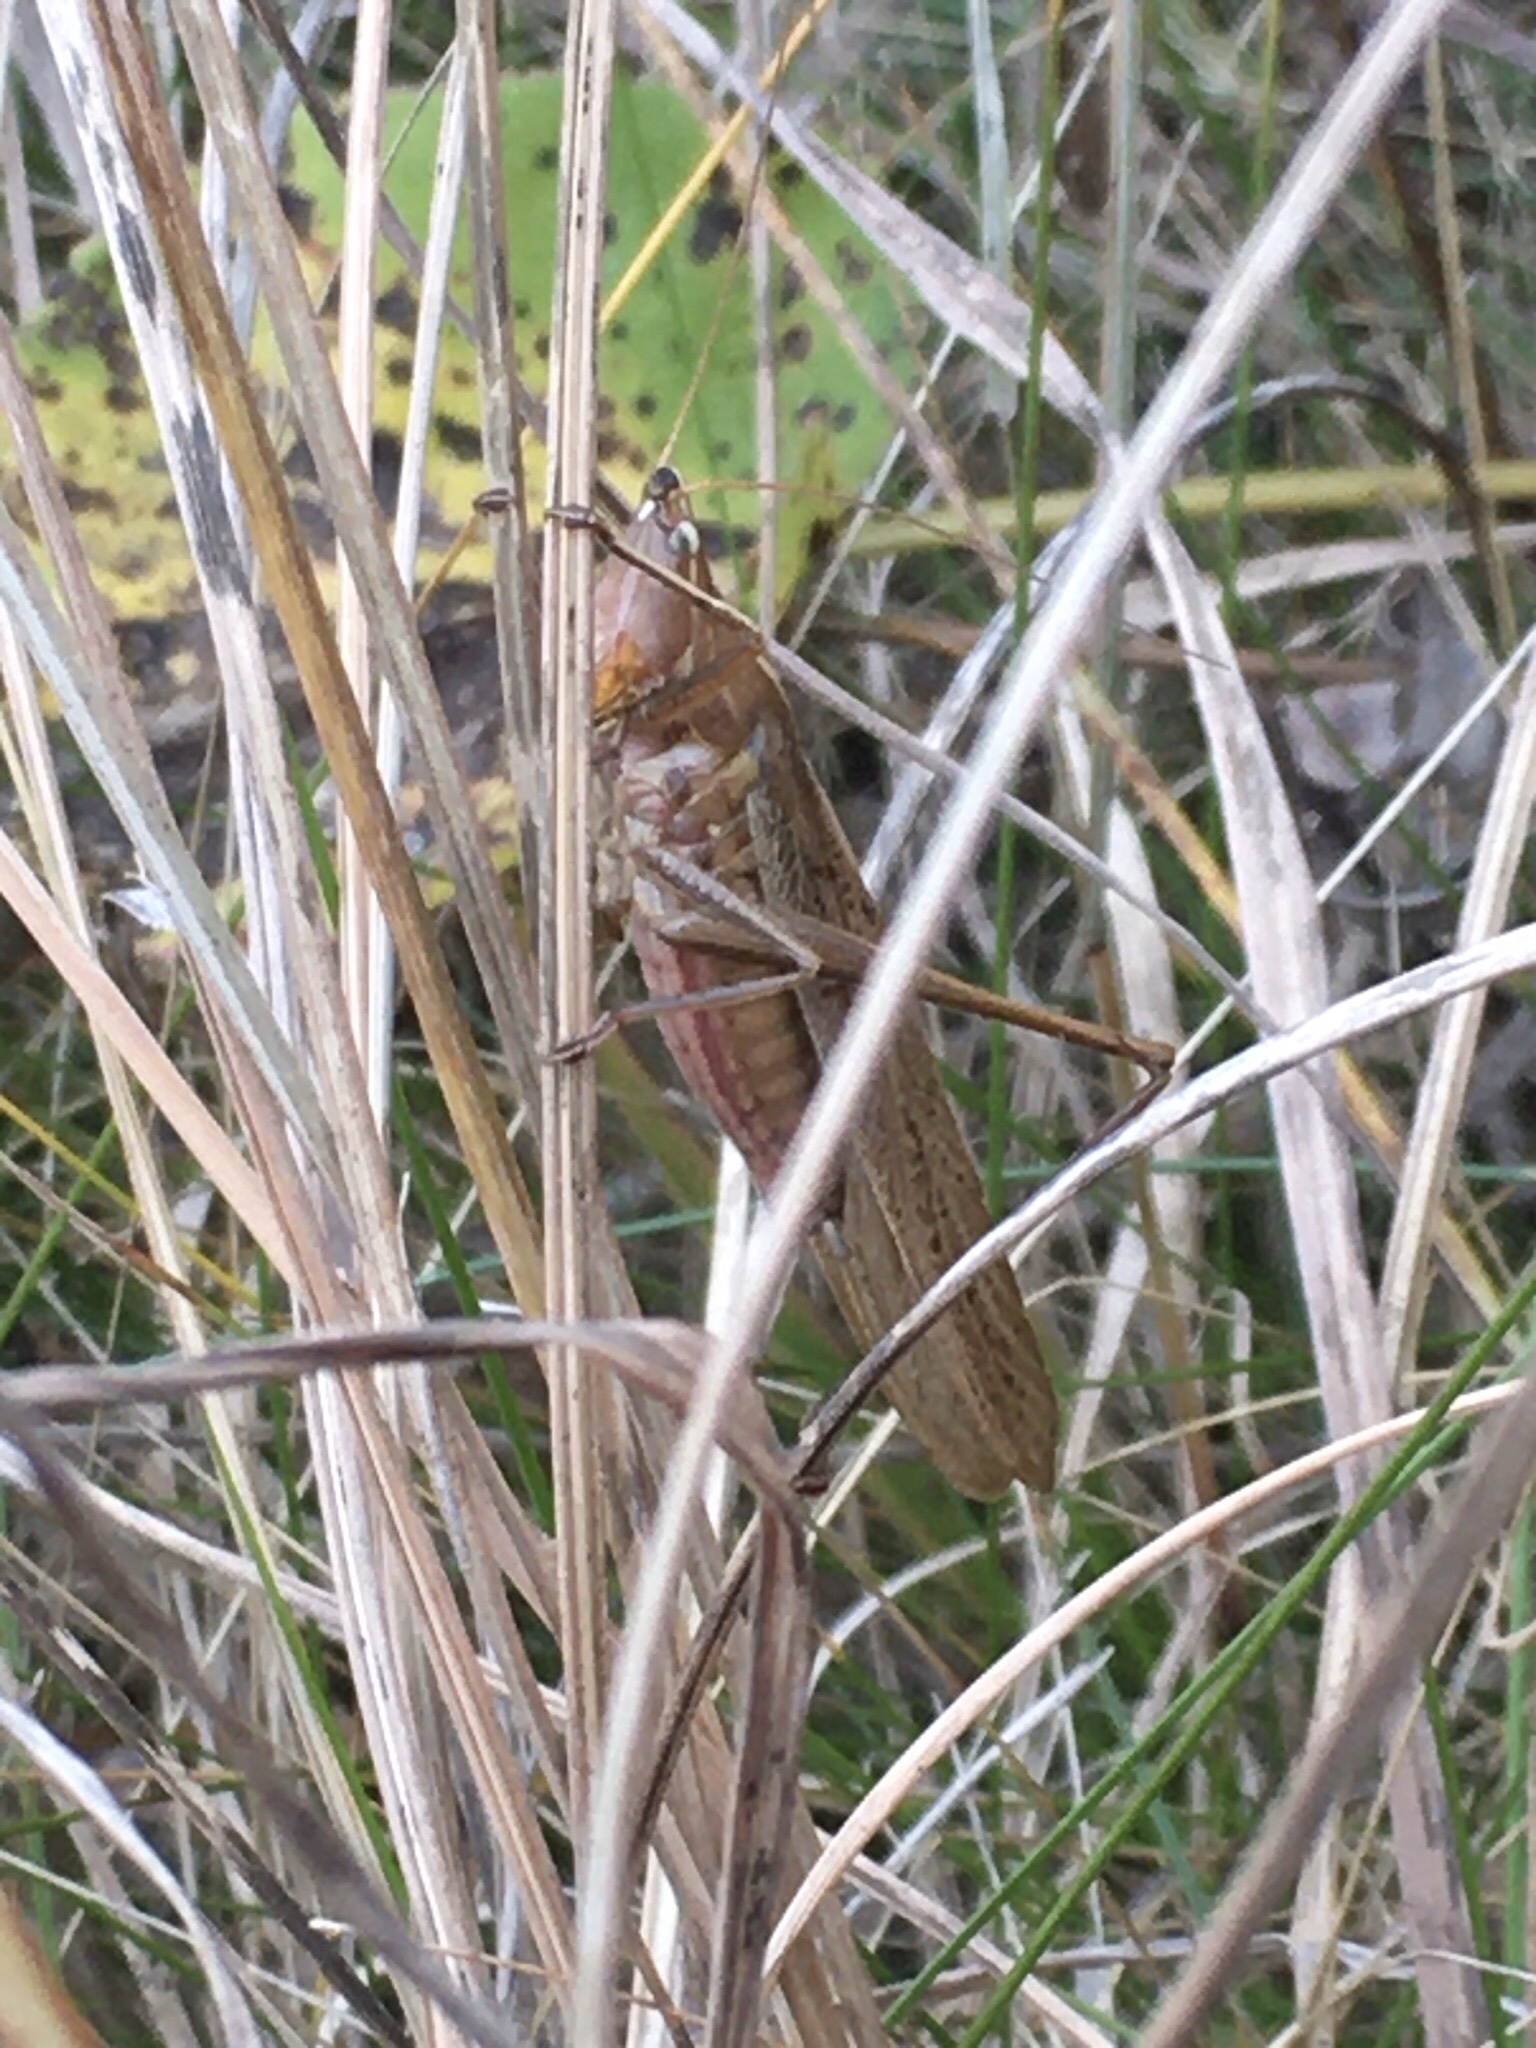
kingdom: Animalia
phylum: Arthropoda
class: Insecta
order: Orthoptera
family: Tettigoniidae
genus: Neoconocephalus
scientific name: Neoconocephalus retusus
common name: Round-tipped conehead
